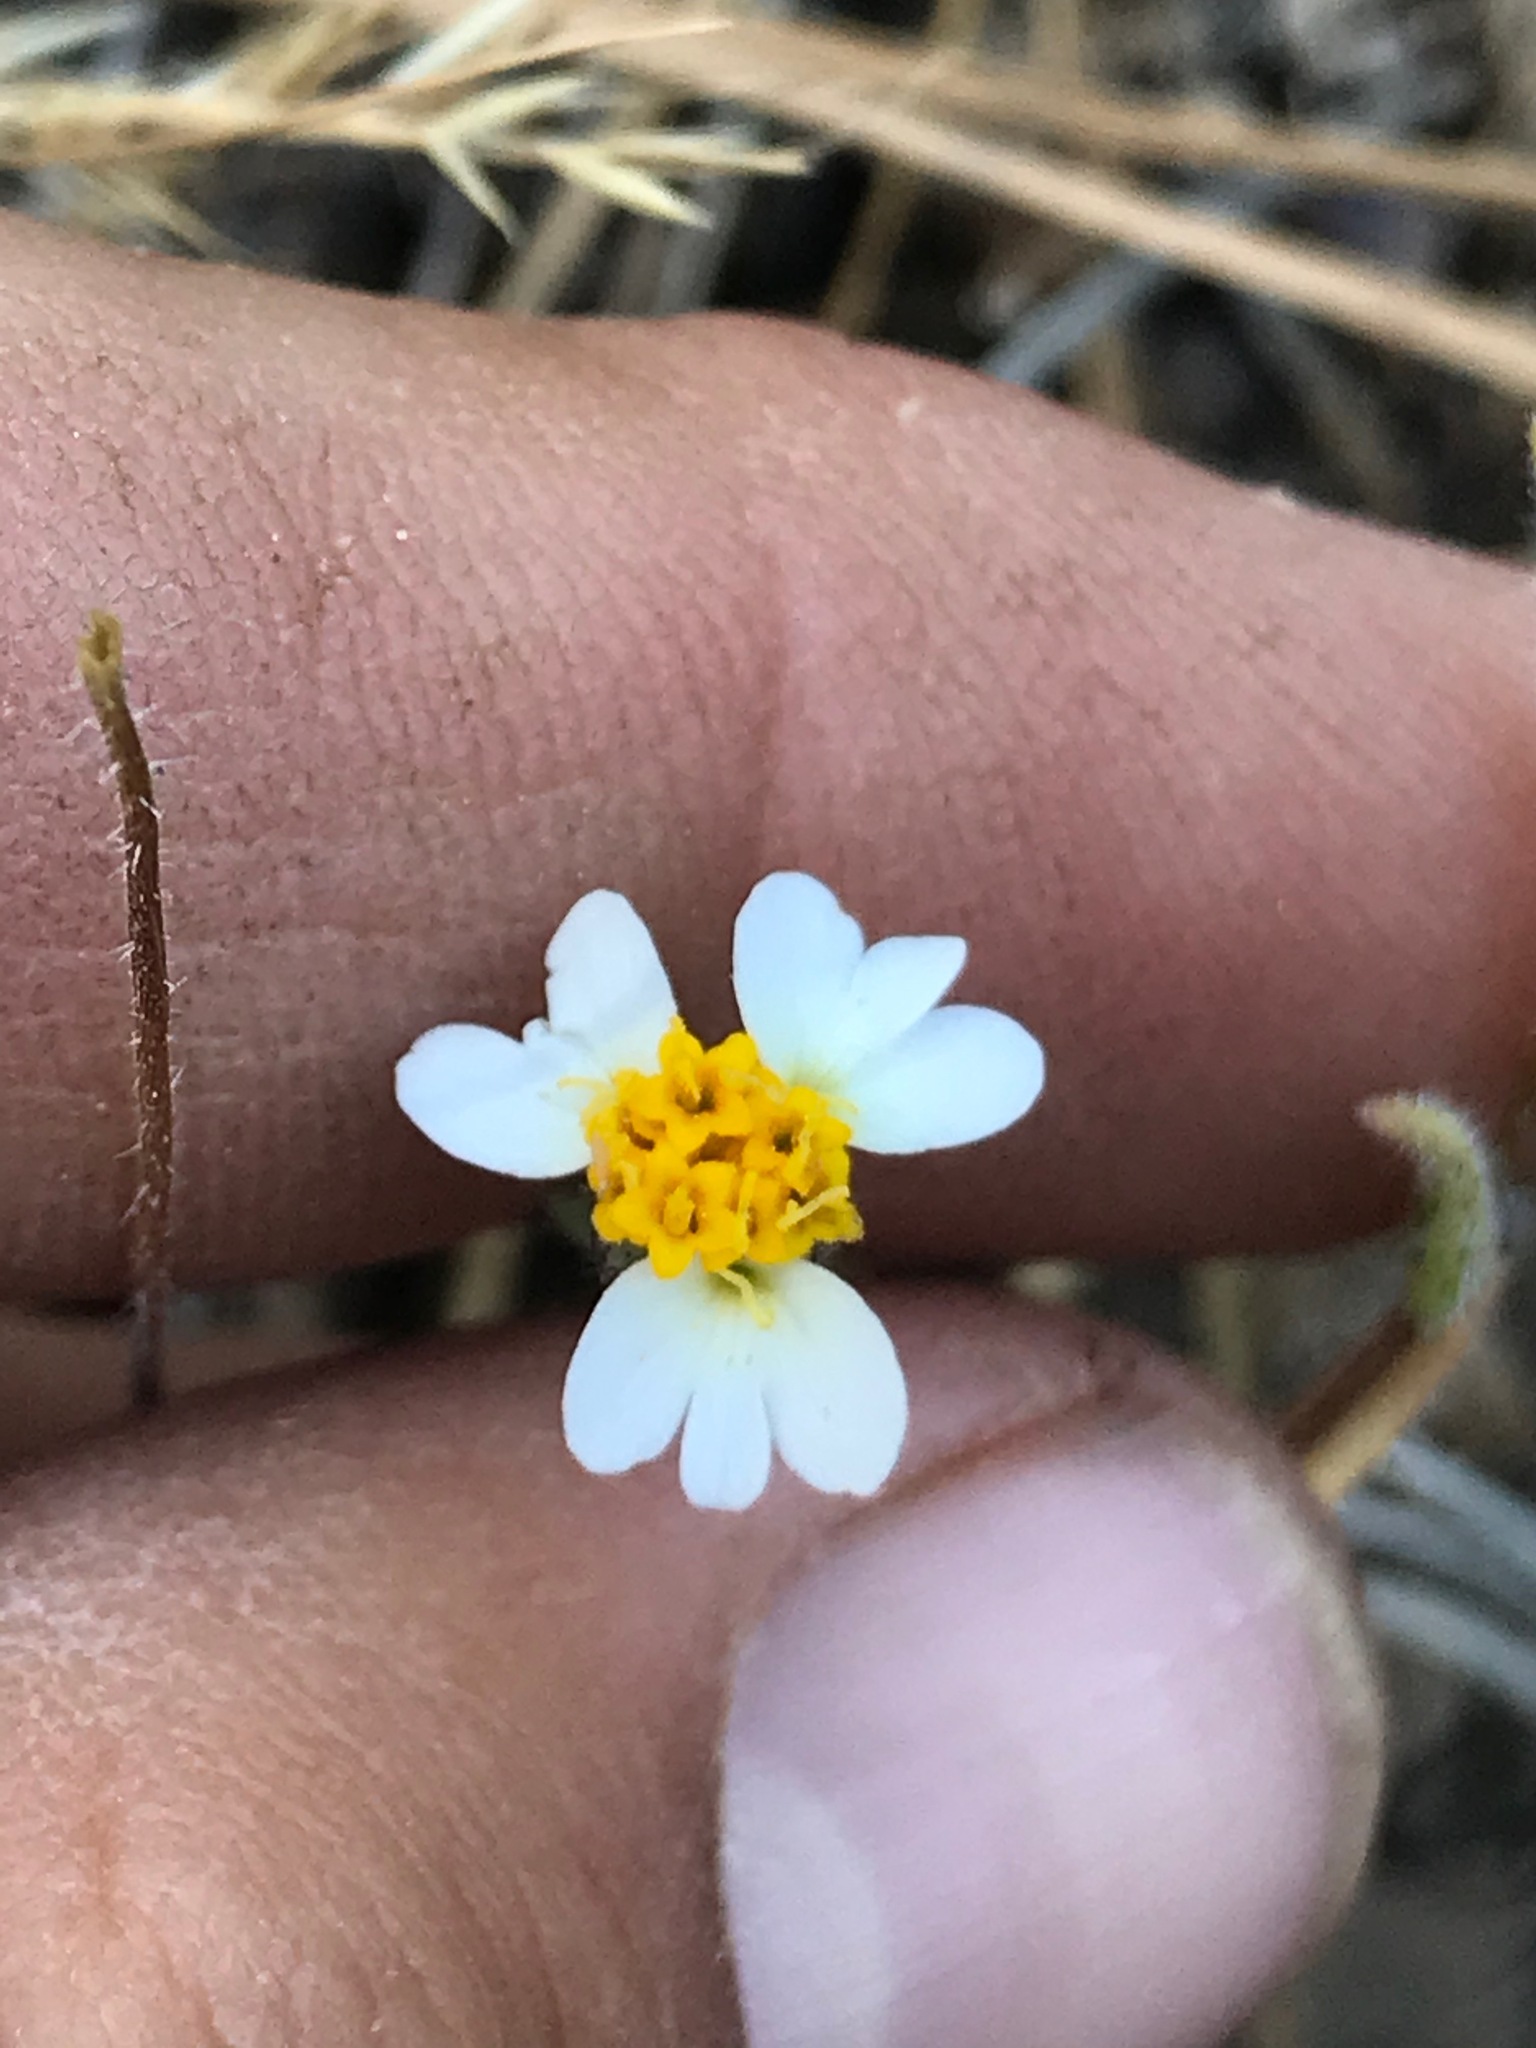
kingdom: Plantae
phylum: Tracheophyta
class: Magnoliopsida
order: Asterales
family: Asteraceae
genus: Layia
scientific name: Layia glandulosa
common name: White layia
